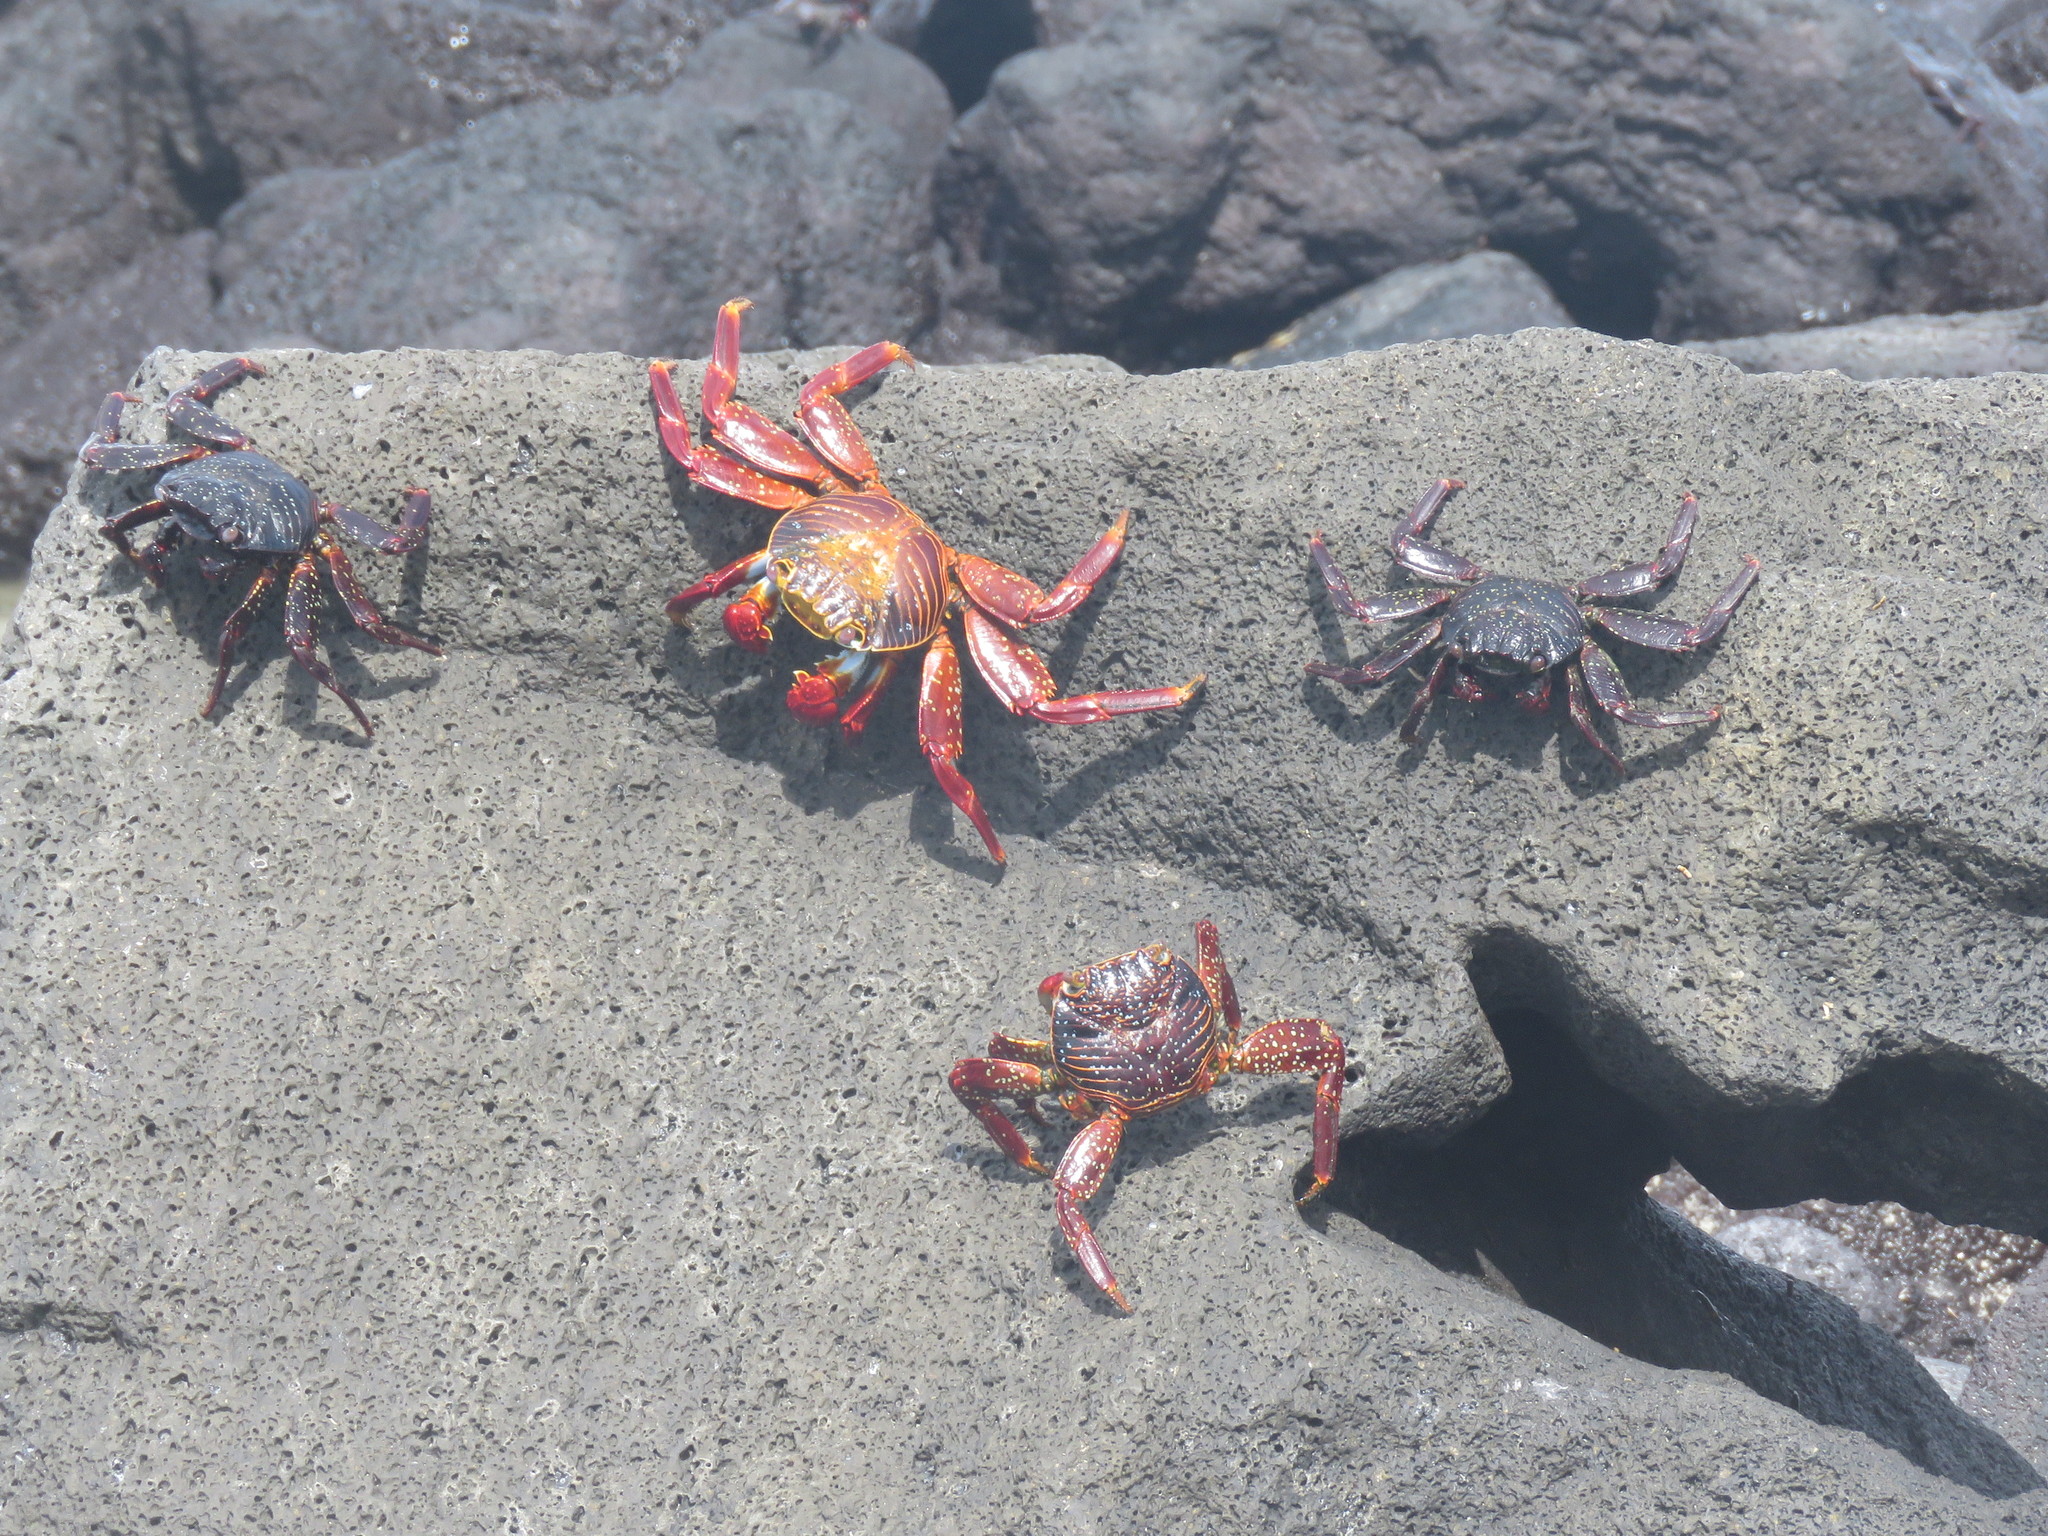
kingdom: Animalia
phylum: Arthropoda
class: Malacostraca
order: Decapoda
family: Grapsidae
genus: Grapsus
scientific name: Grapsus grapsus
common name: Sally lightfoot
